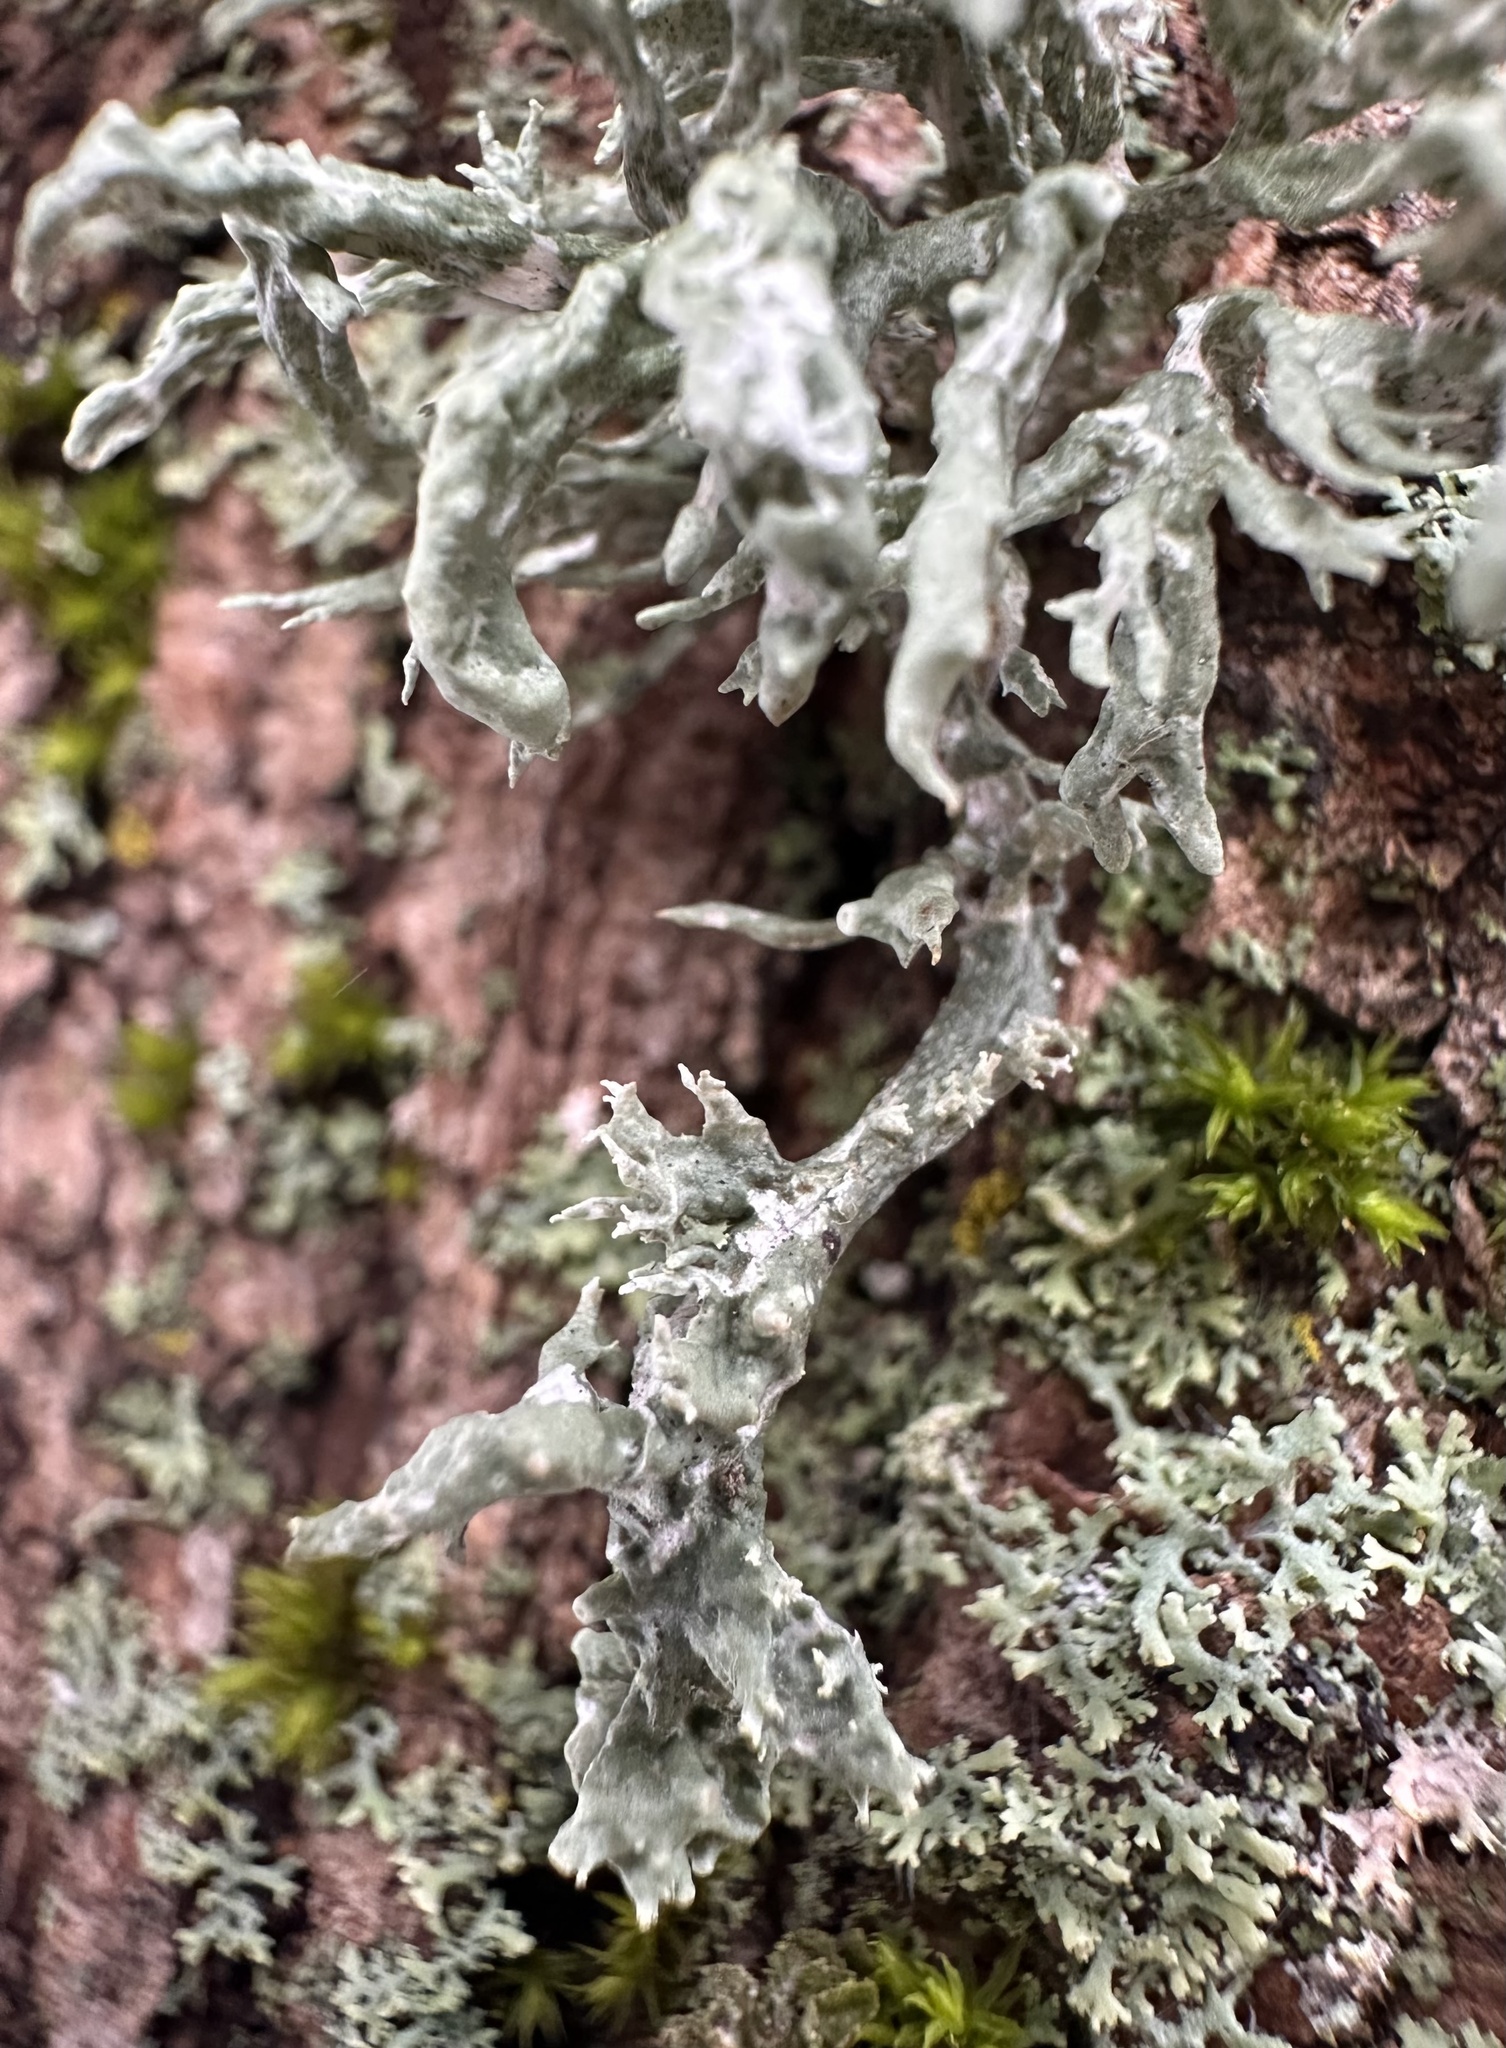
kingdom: Fungi
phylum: Ascomycota
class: Lecanoromycetes
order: Lecanorales
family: Ramalinaceae
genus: Ramalina
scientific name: Ramalina fastigiata
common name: Dotted ribbon lichen
